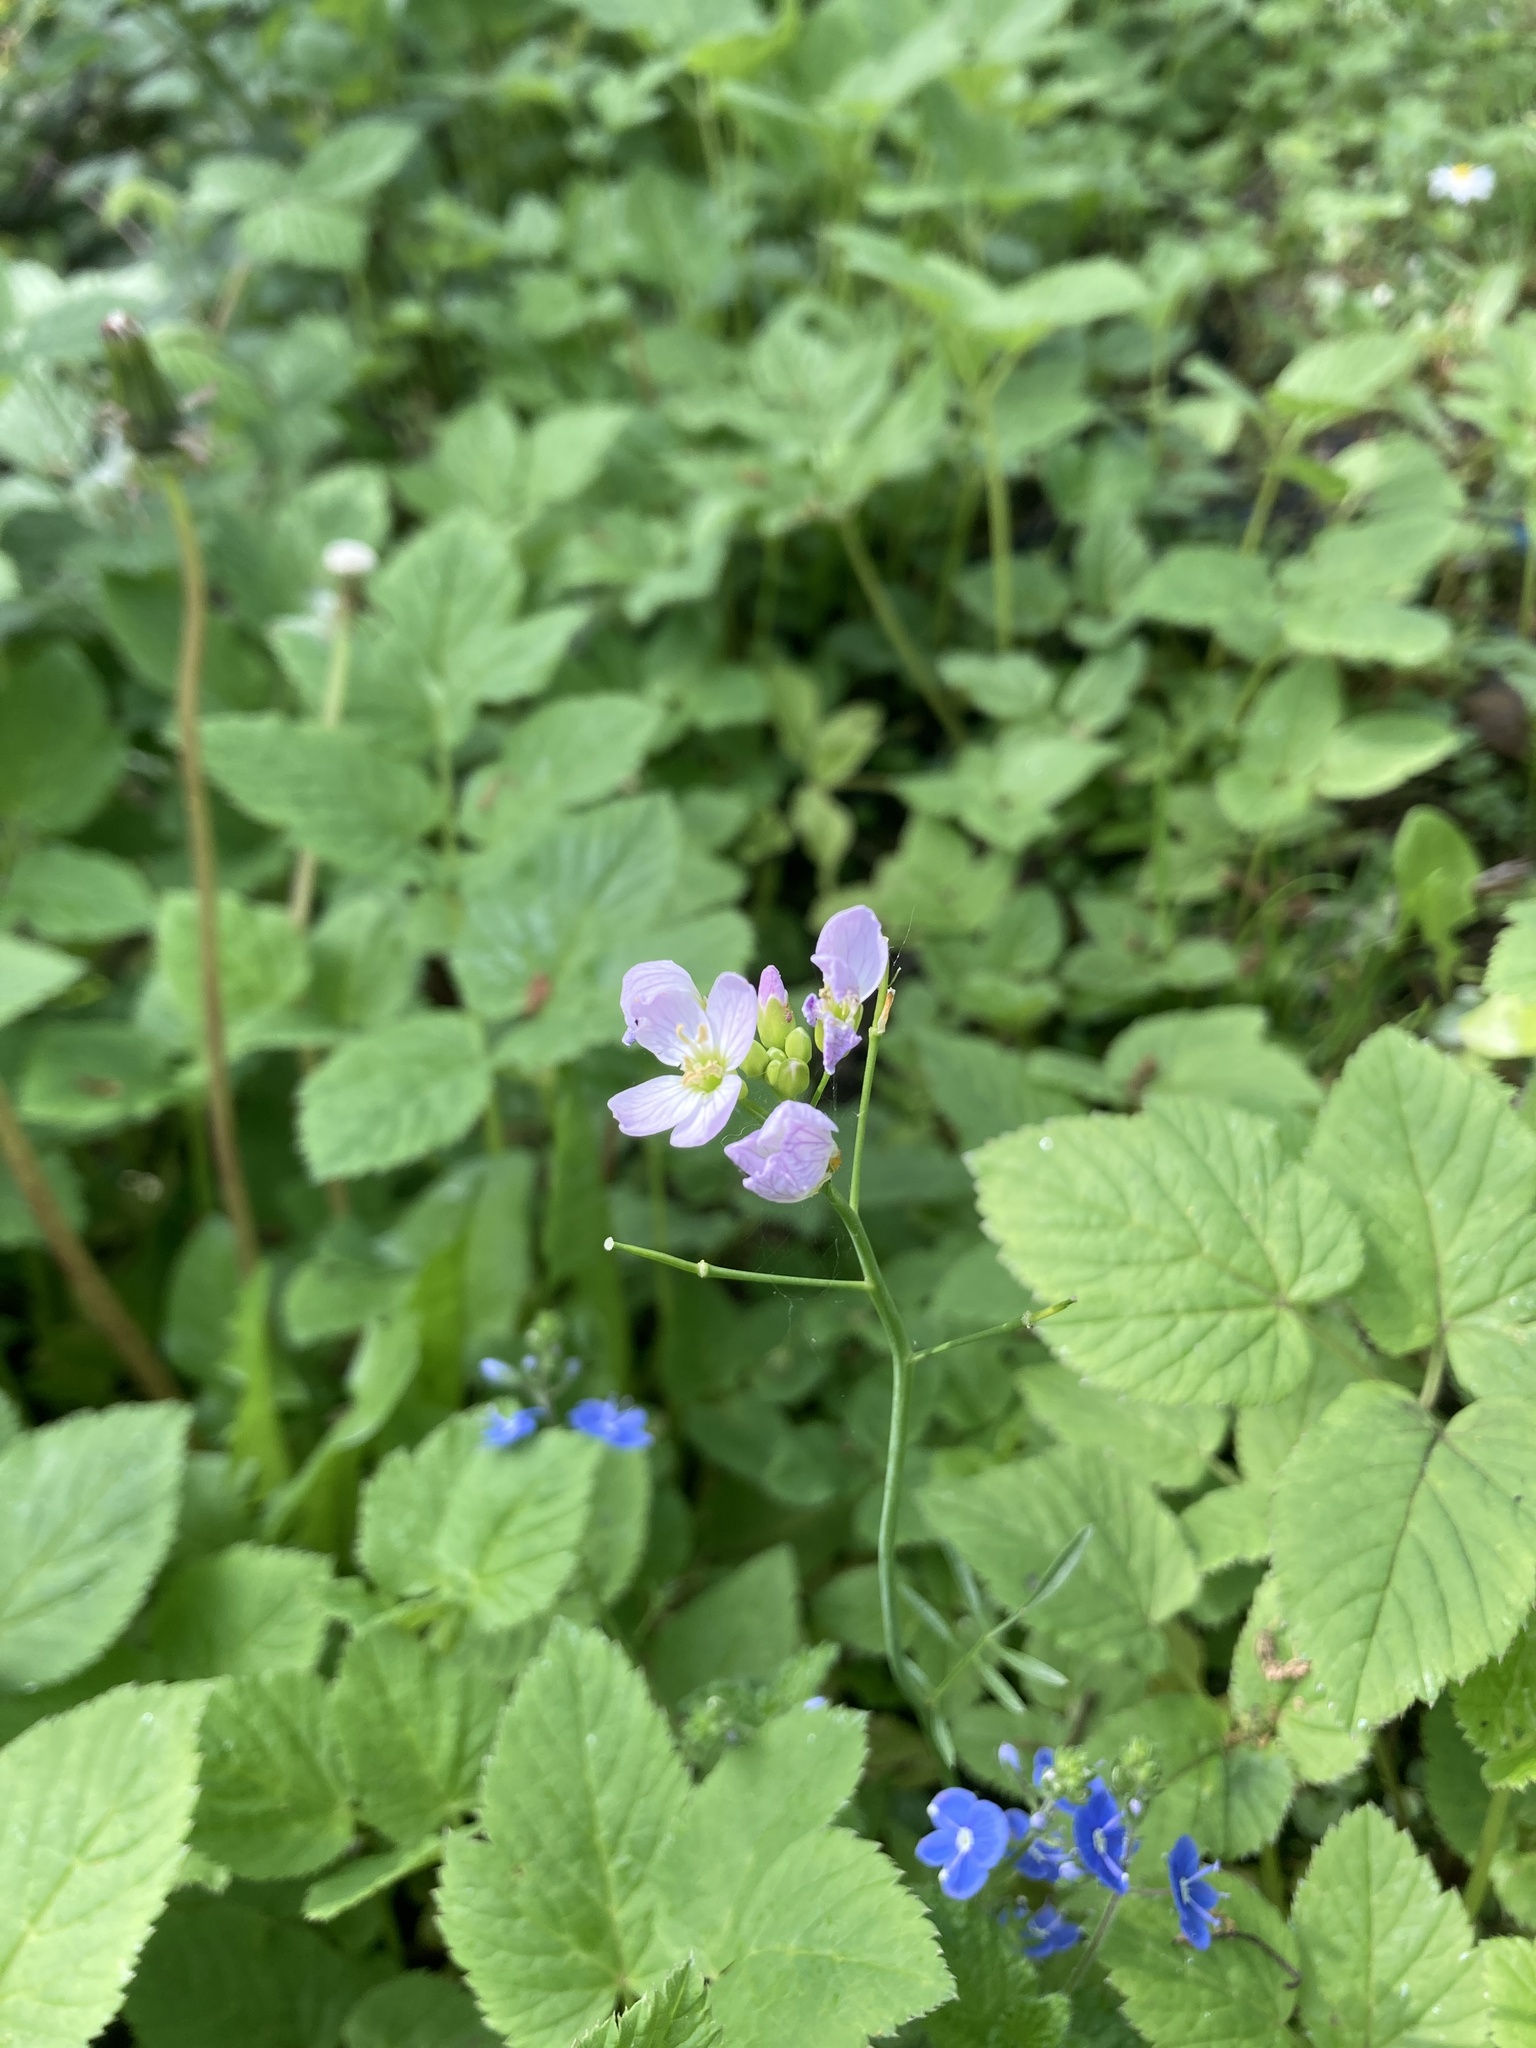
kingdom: Plantae
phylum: Tracheophyta
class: Magnoliopsida
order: Brassicales
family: Brassicaceae
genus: Cardamine
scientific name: Cardamine pratensis
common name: Cuckoo flower
